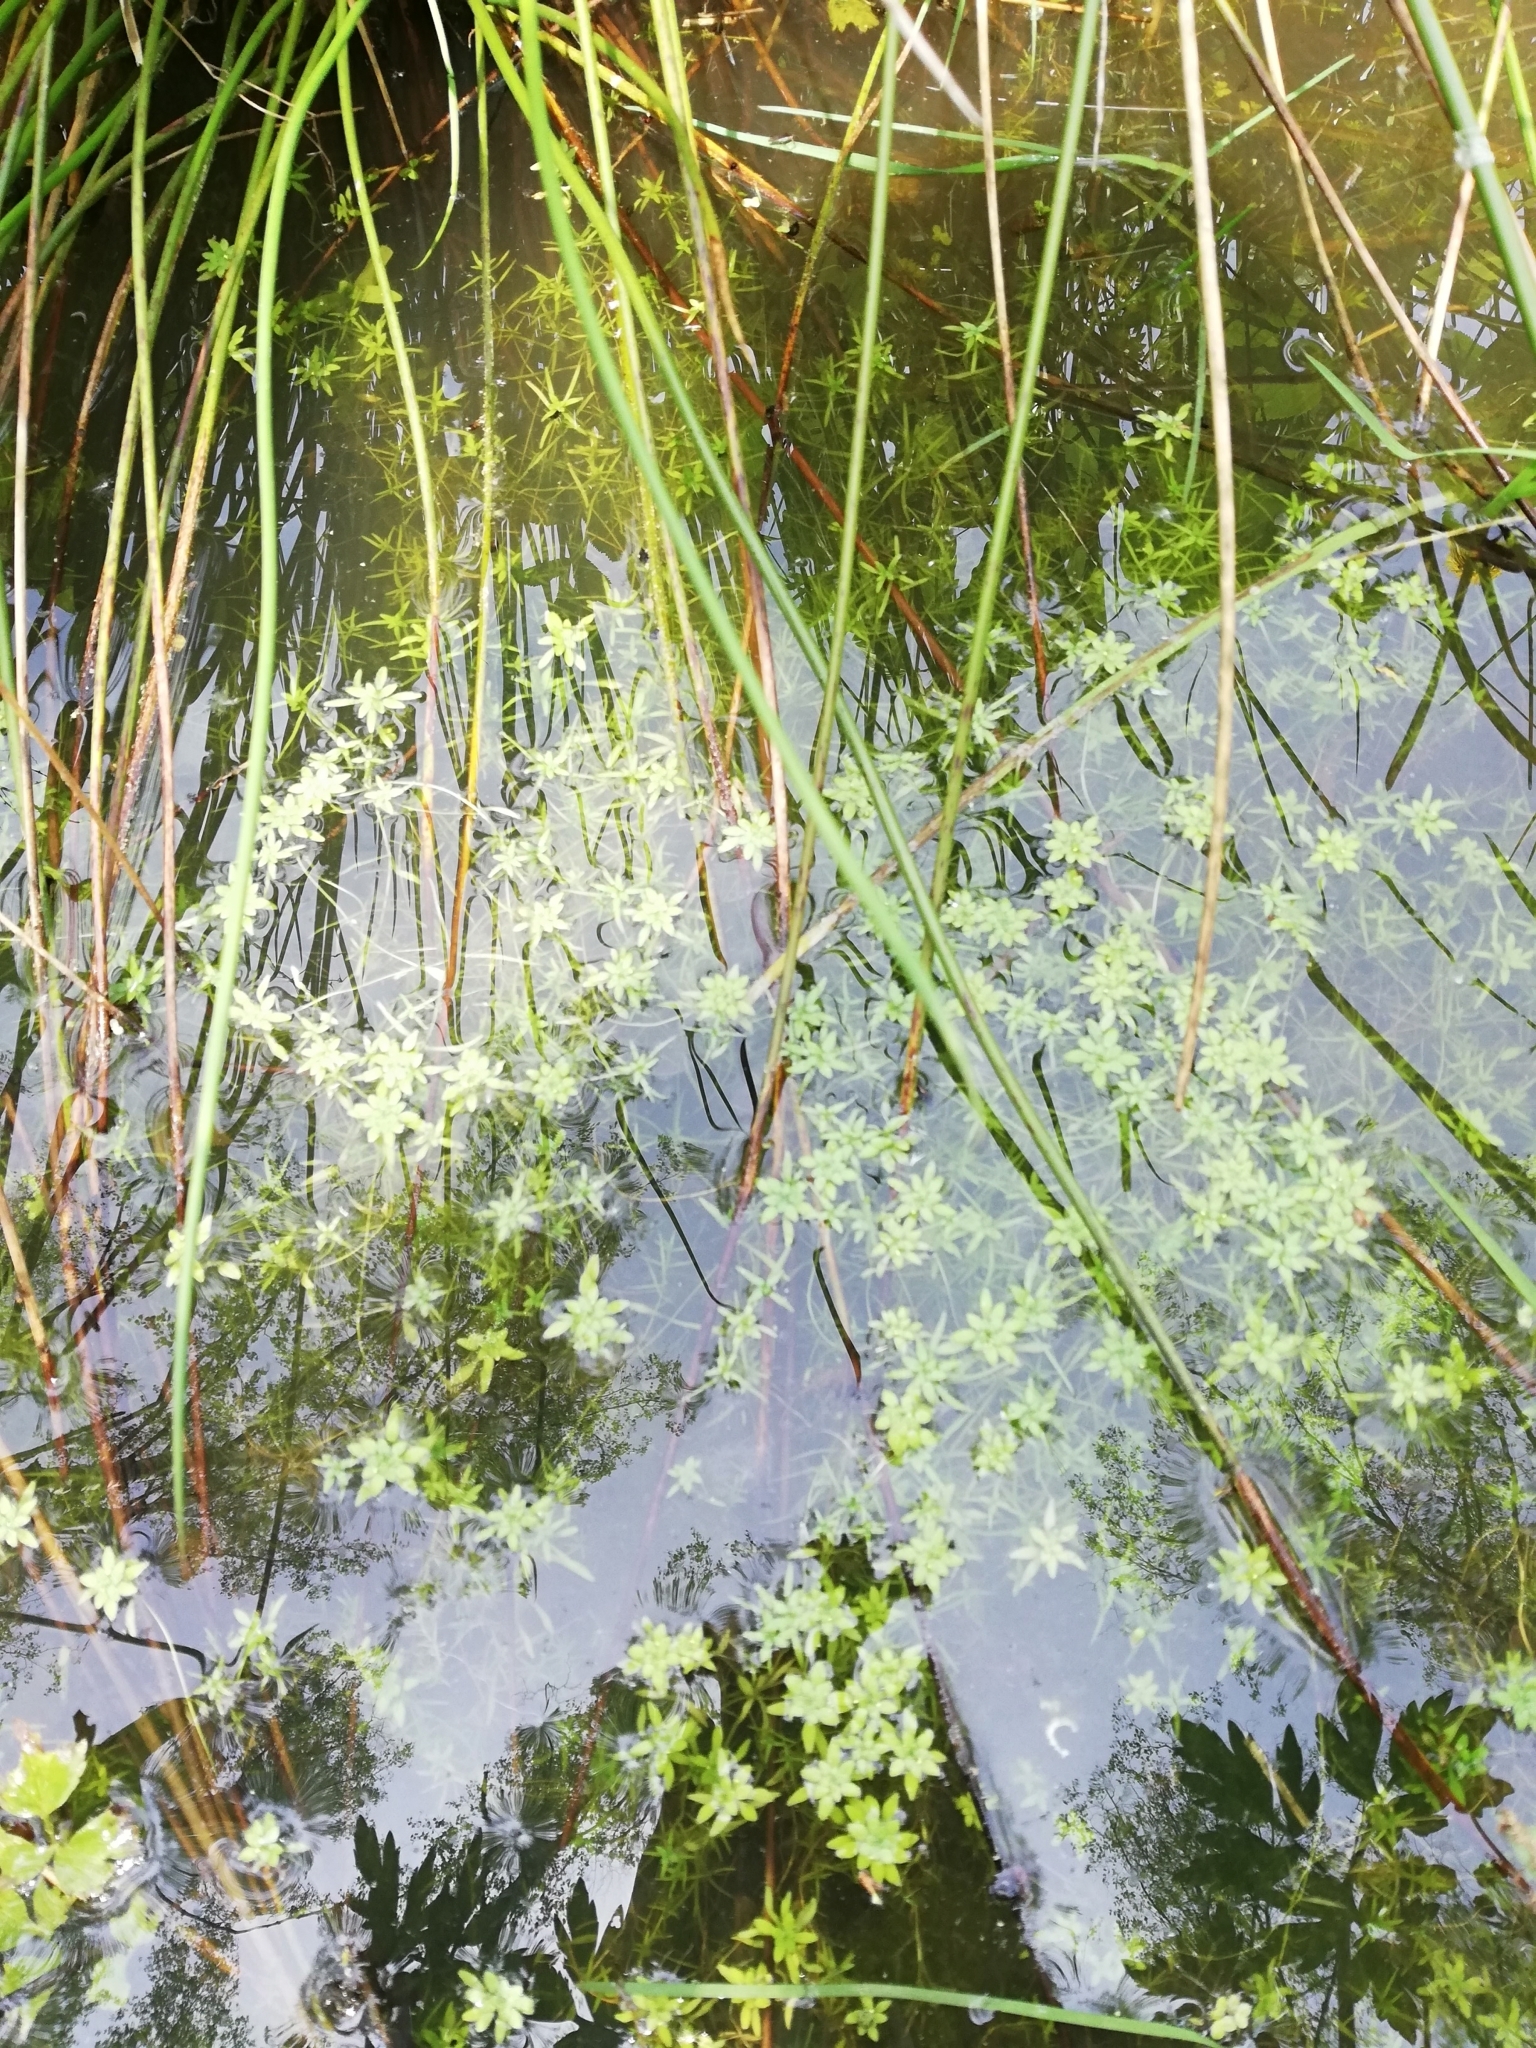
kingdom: Plantae
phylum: Tracheophyta
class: Magnoliopsida
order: Lamiales
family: Plantaginaceae
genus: Callitriche
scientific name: Callitriche palustris
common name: Spring water-starwort
